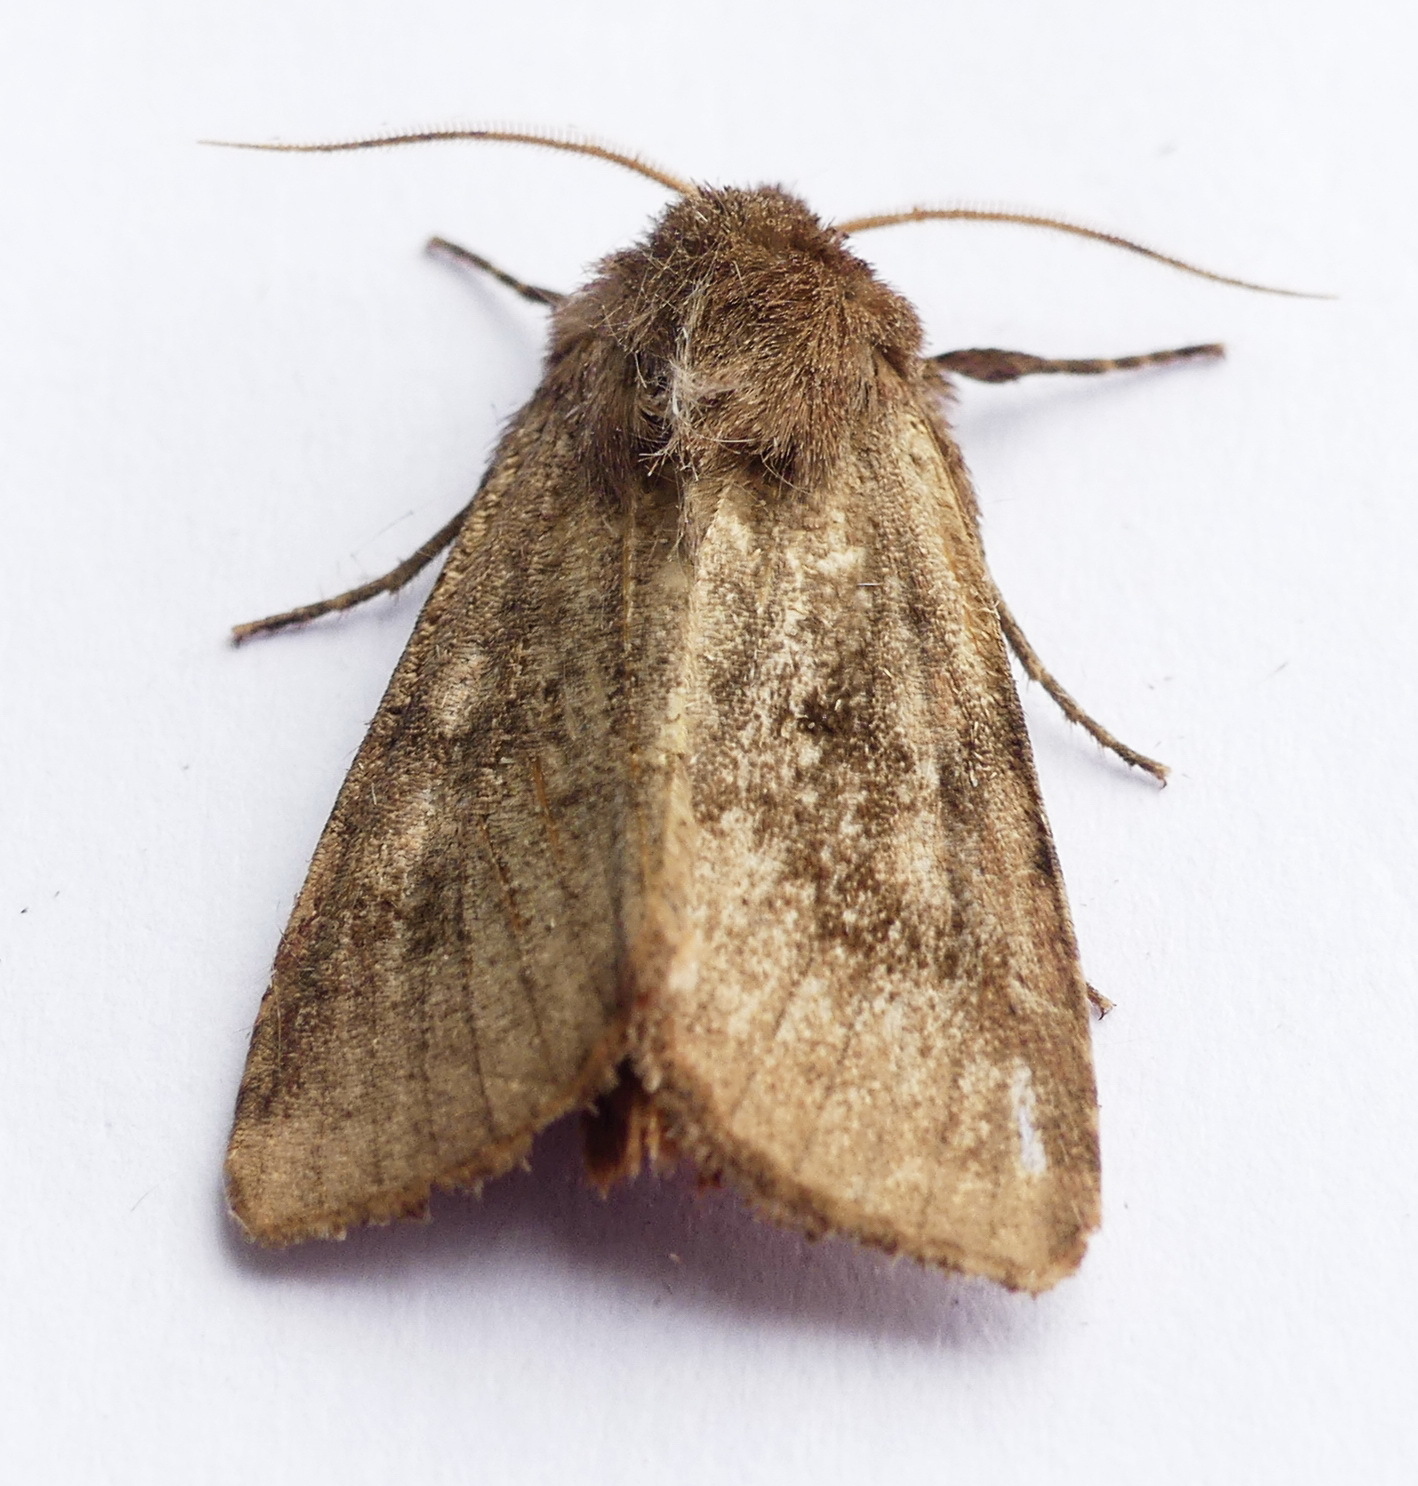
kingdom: Animalia
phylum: Arthropoda
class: Insecta
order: Lepidoptera
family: Noctuidae
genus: Nephelodes
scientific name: Nephelodes minians
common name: Bronzed cutworm
